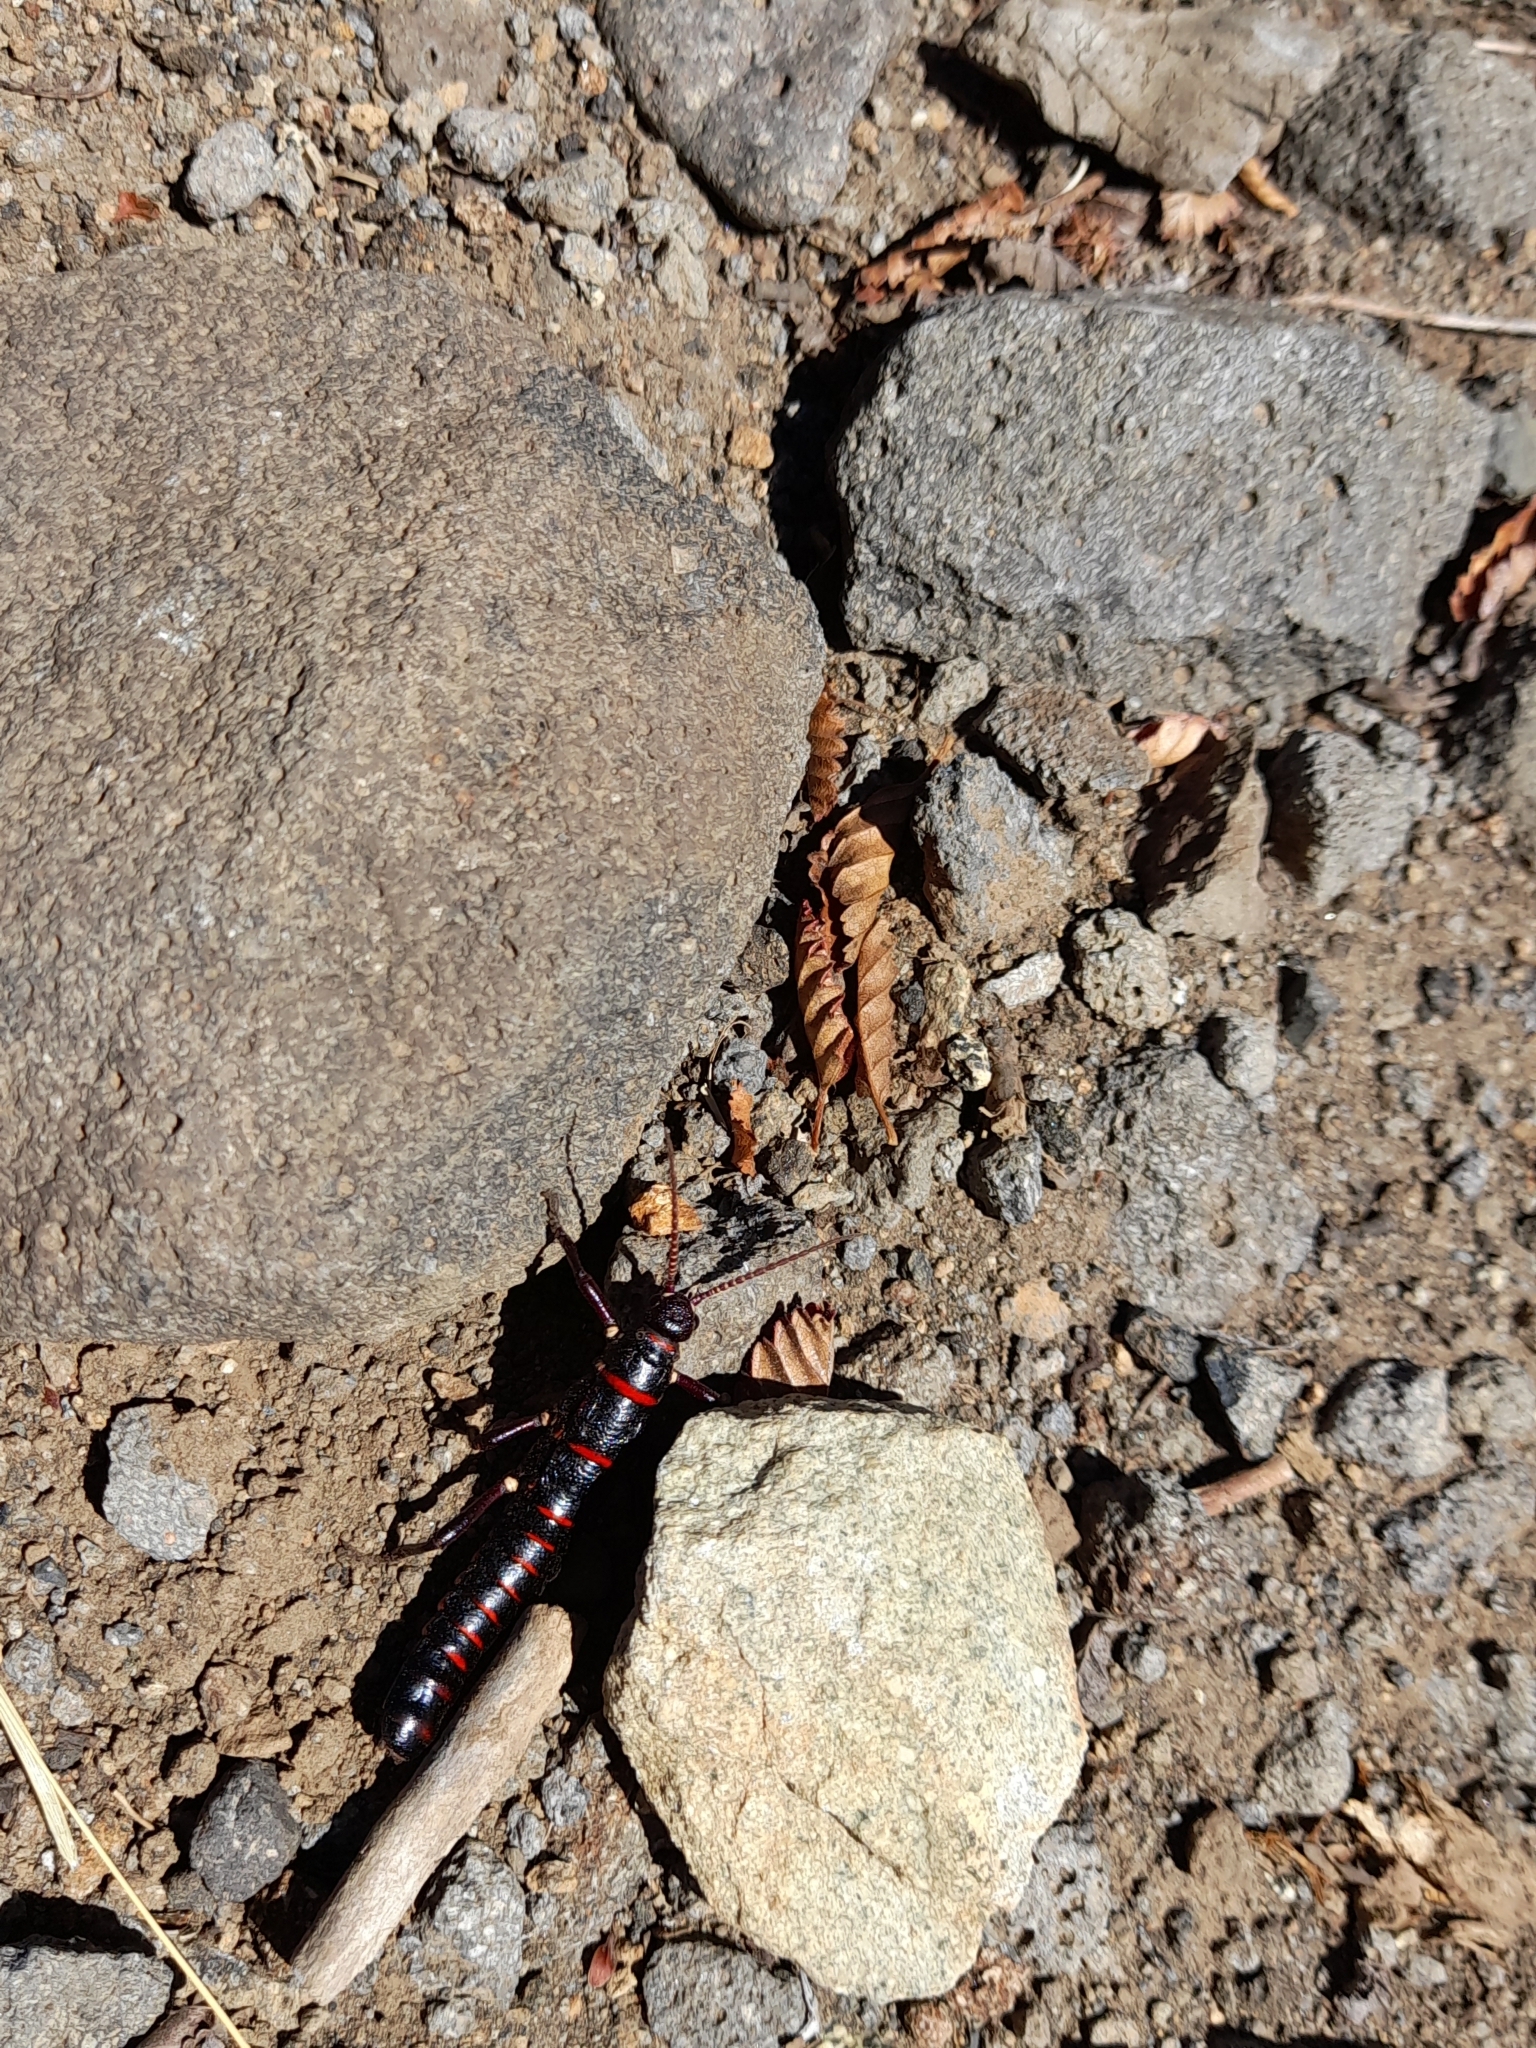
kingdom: Animalia
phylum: Arthropoda
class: Insecta
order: Phasmida
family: Agathemeridae
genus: Agathemera
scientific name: Agathemera elegans
